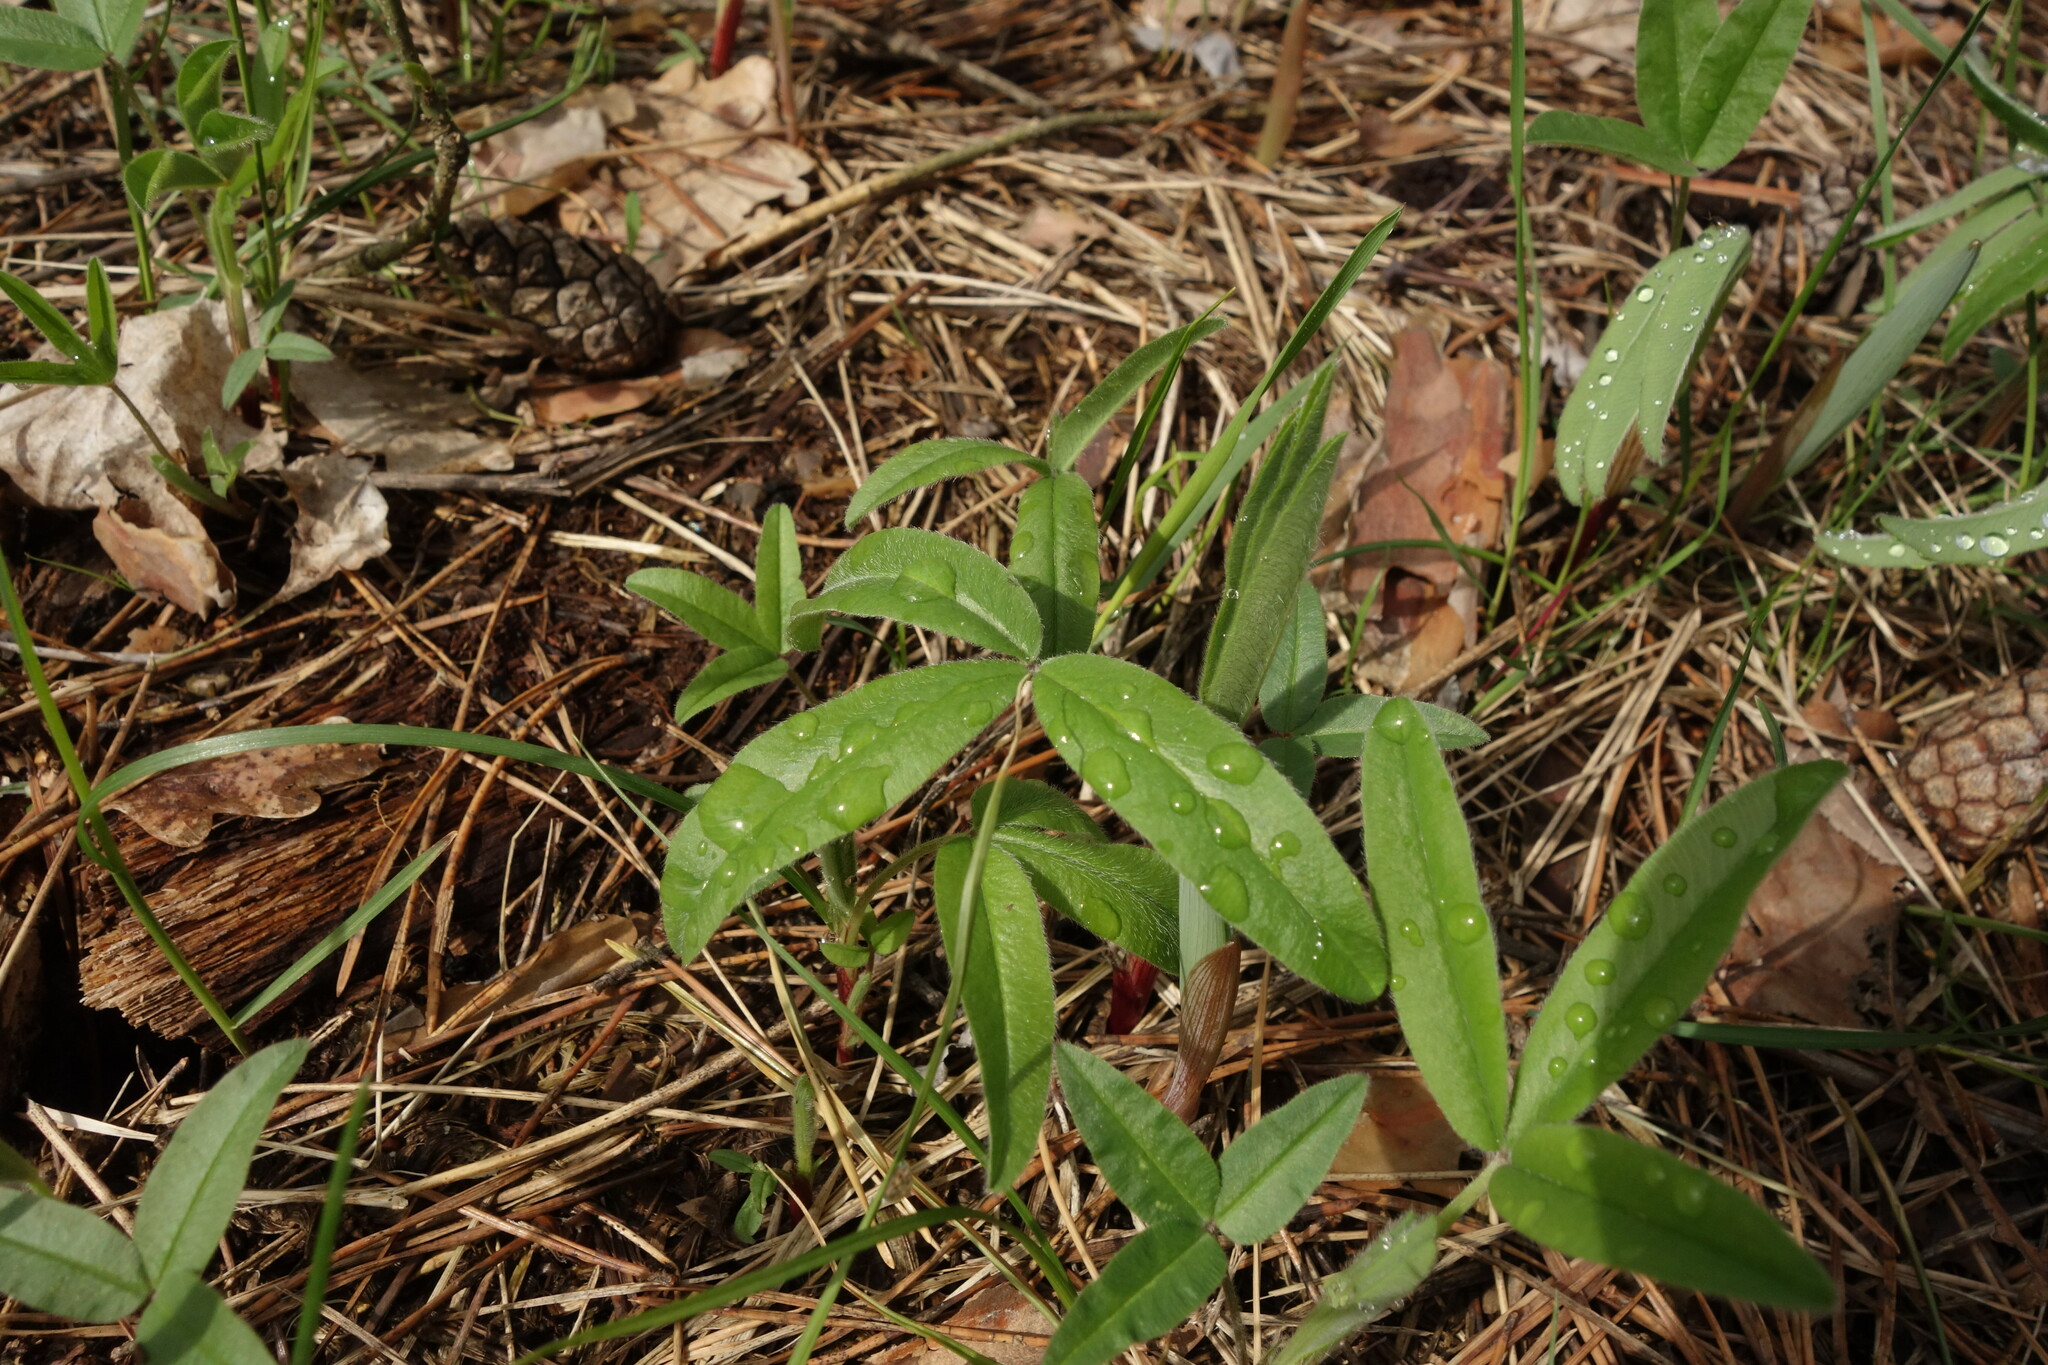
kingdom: Plantae
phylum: Tracheophyta
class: Magnoliopsida
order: Fabales
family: Fabaceae
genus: Trifolium
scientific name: Trifolium alpestre
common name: Owl-head clover
